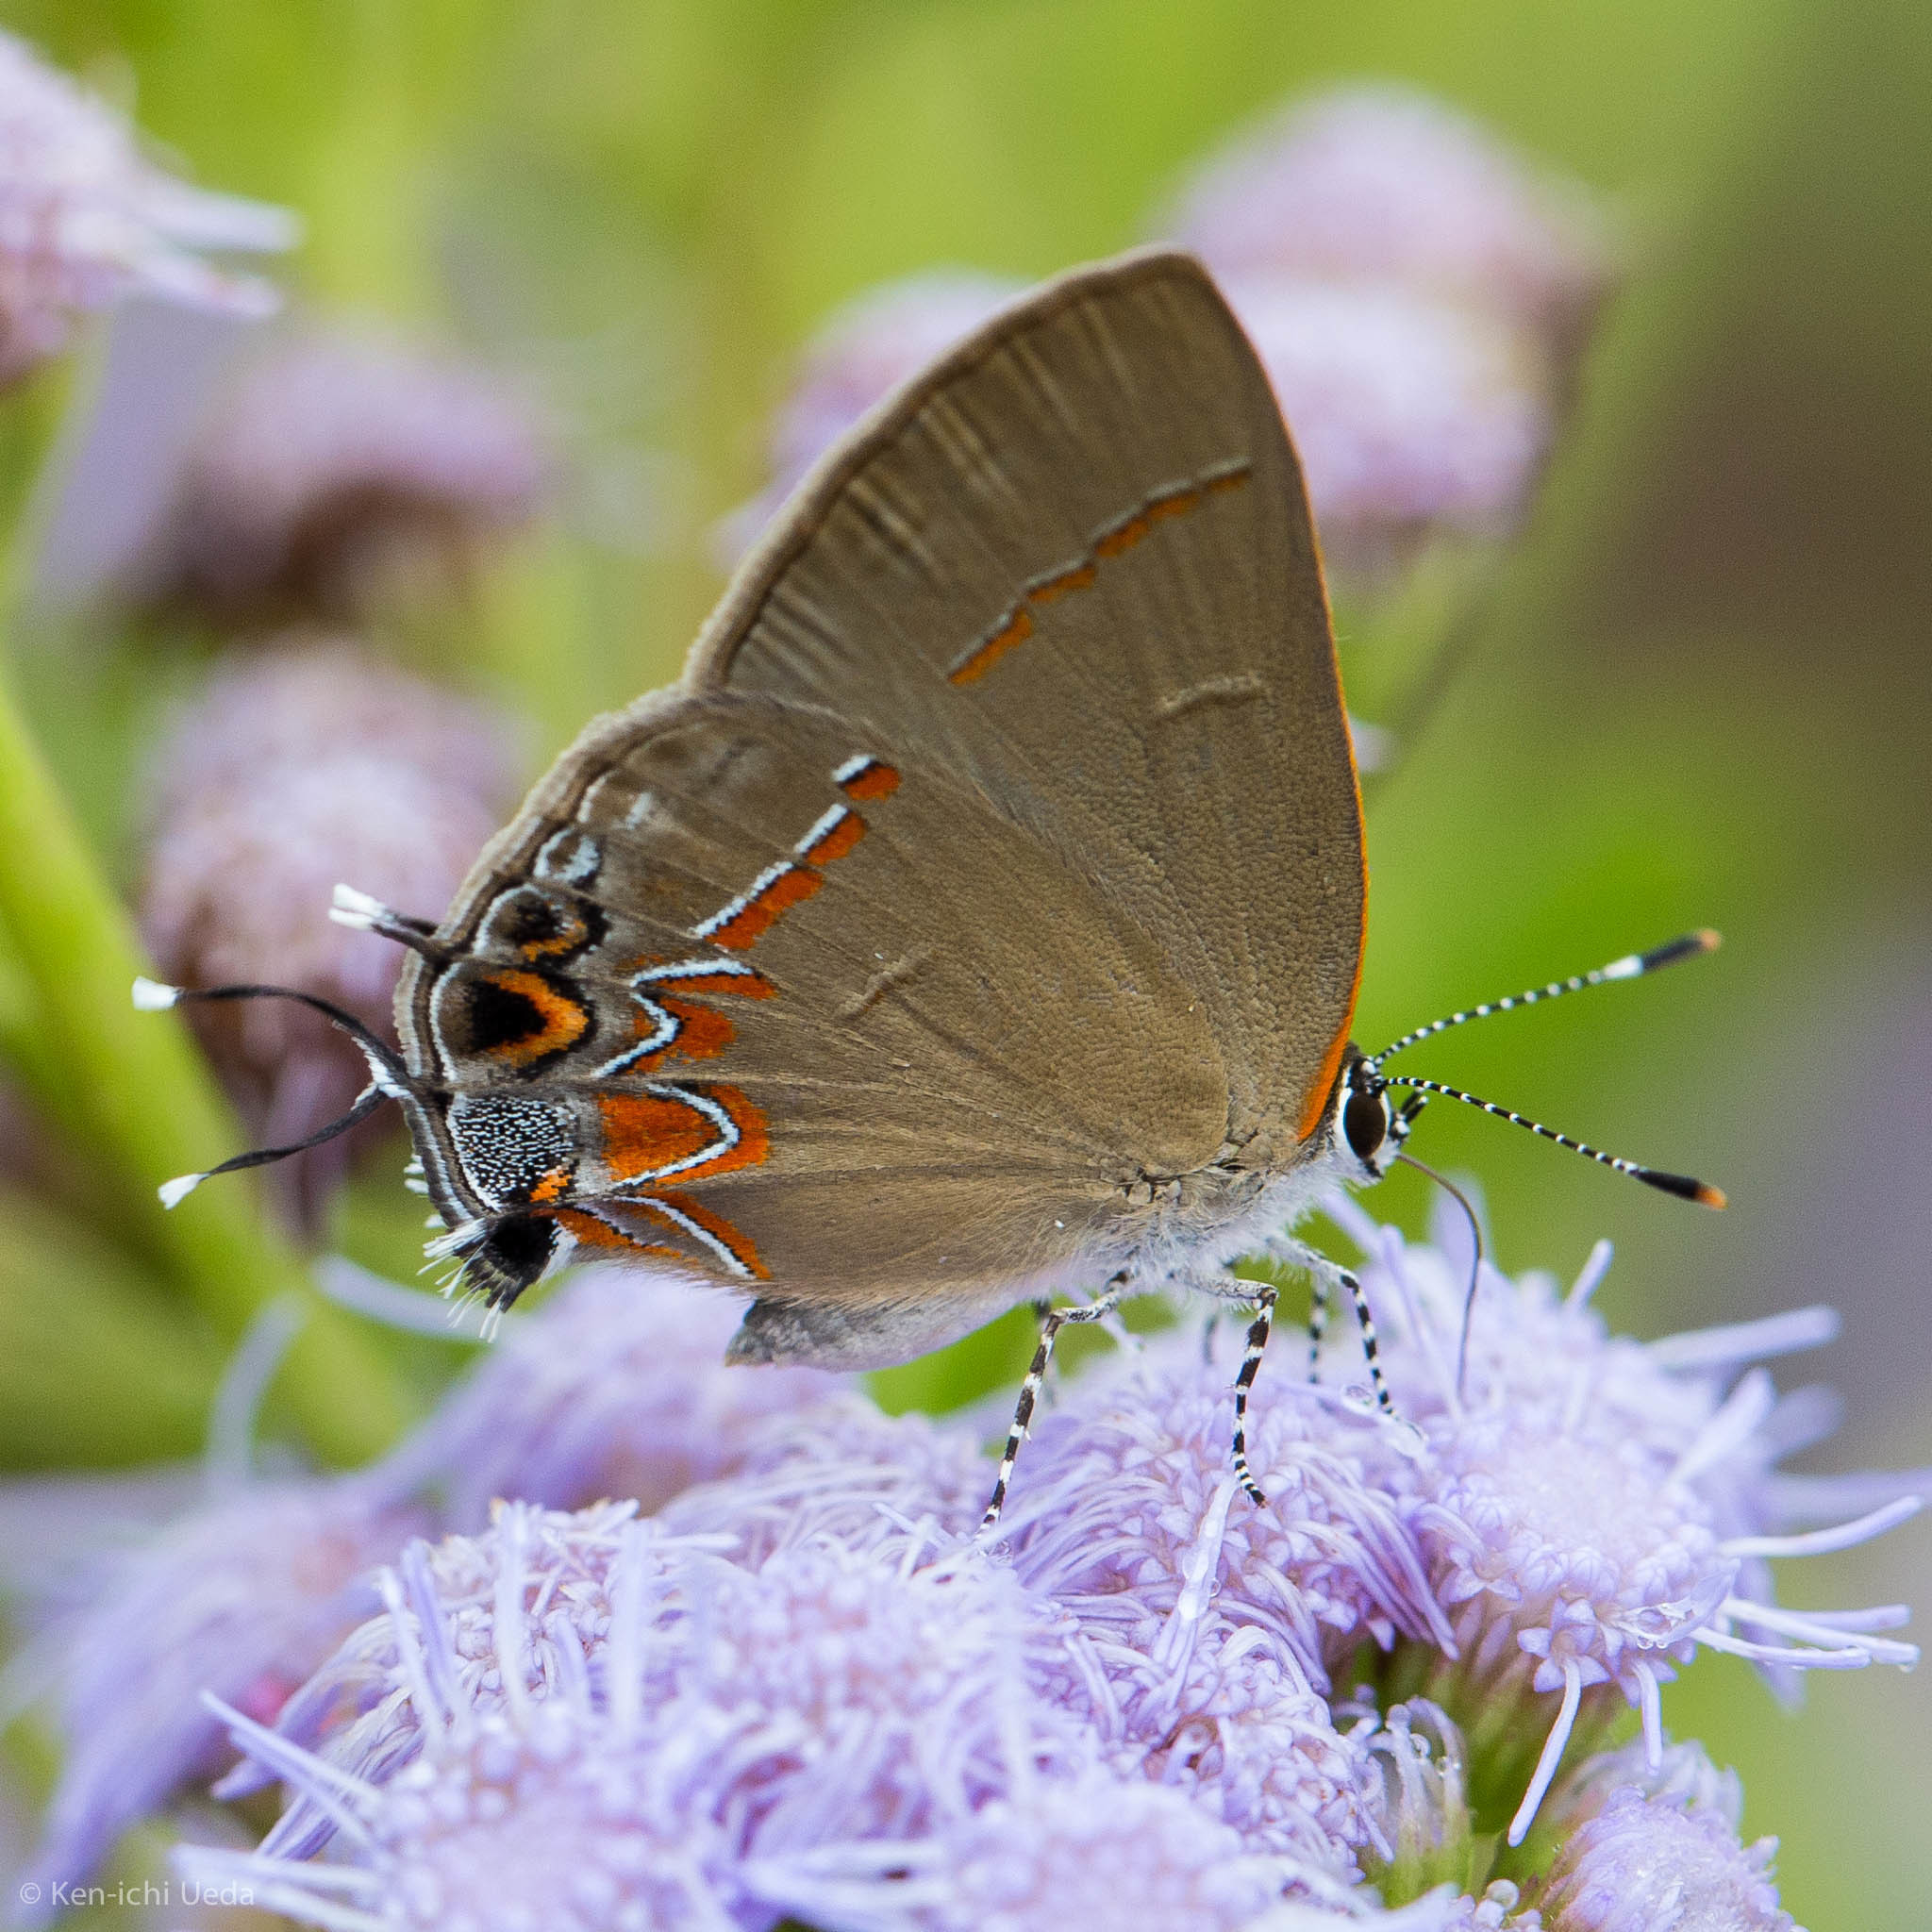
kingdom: Animalia
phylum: Arthropoda
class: Insecta
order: Lepidoptera
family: Lycaenidae
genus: Calycopis
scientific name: Calycopis isobeon
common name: Dusky-blue groundstreak
